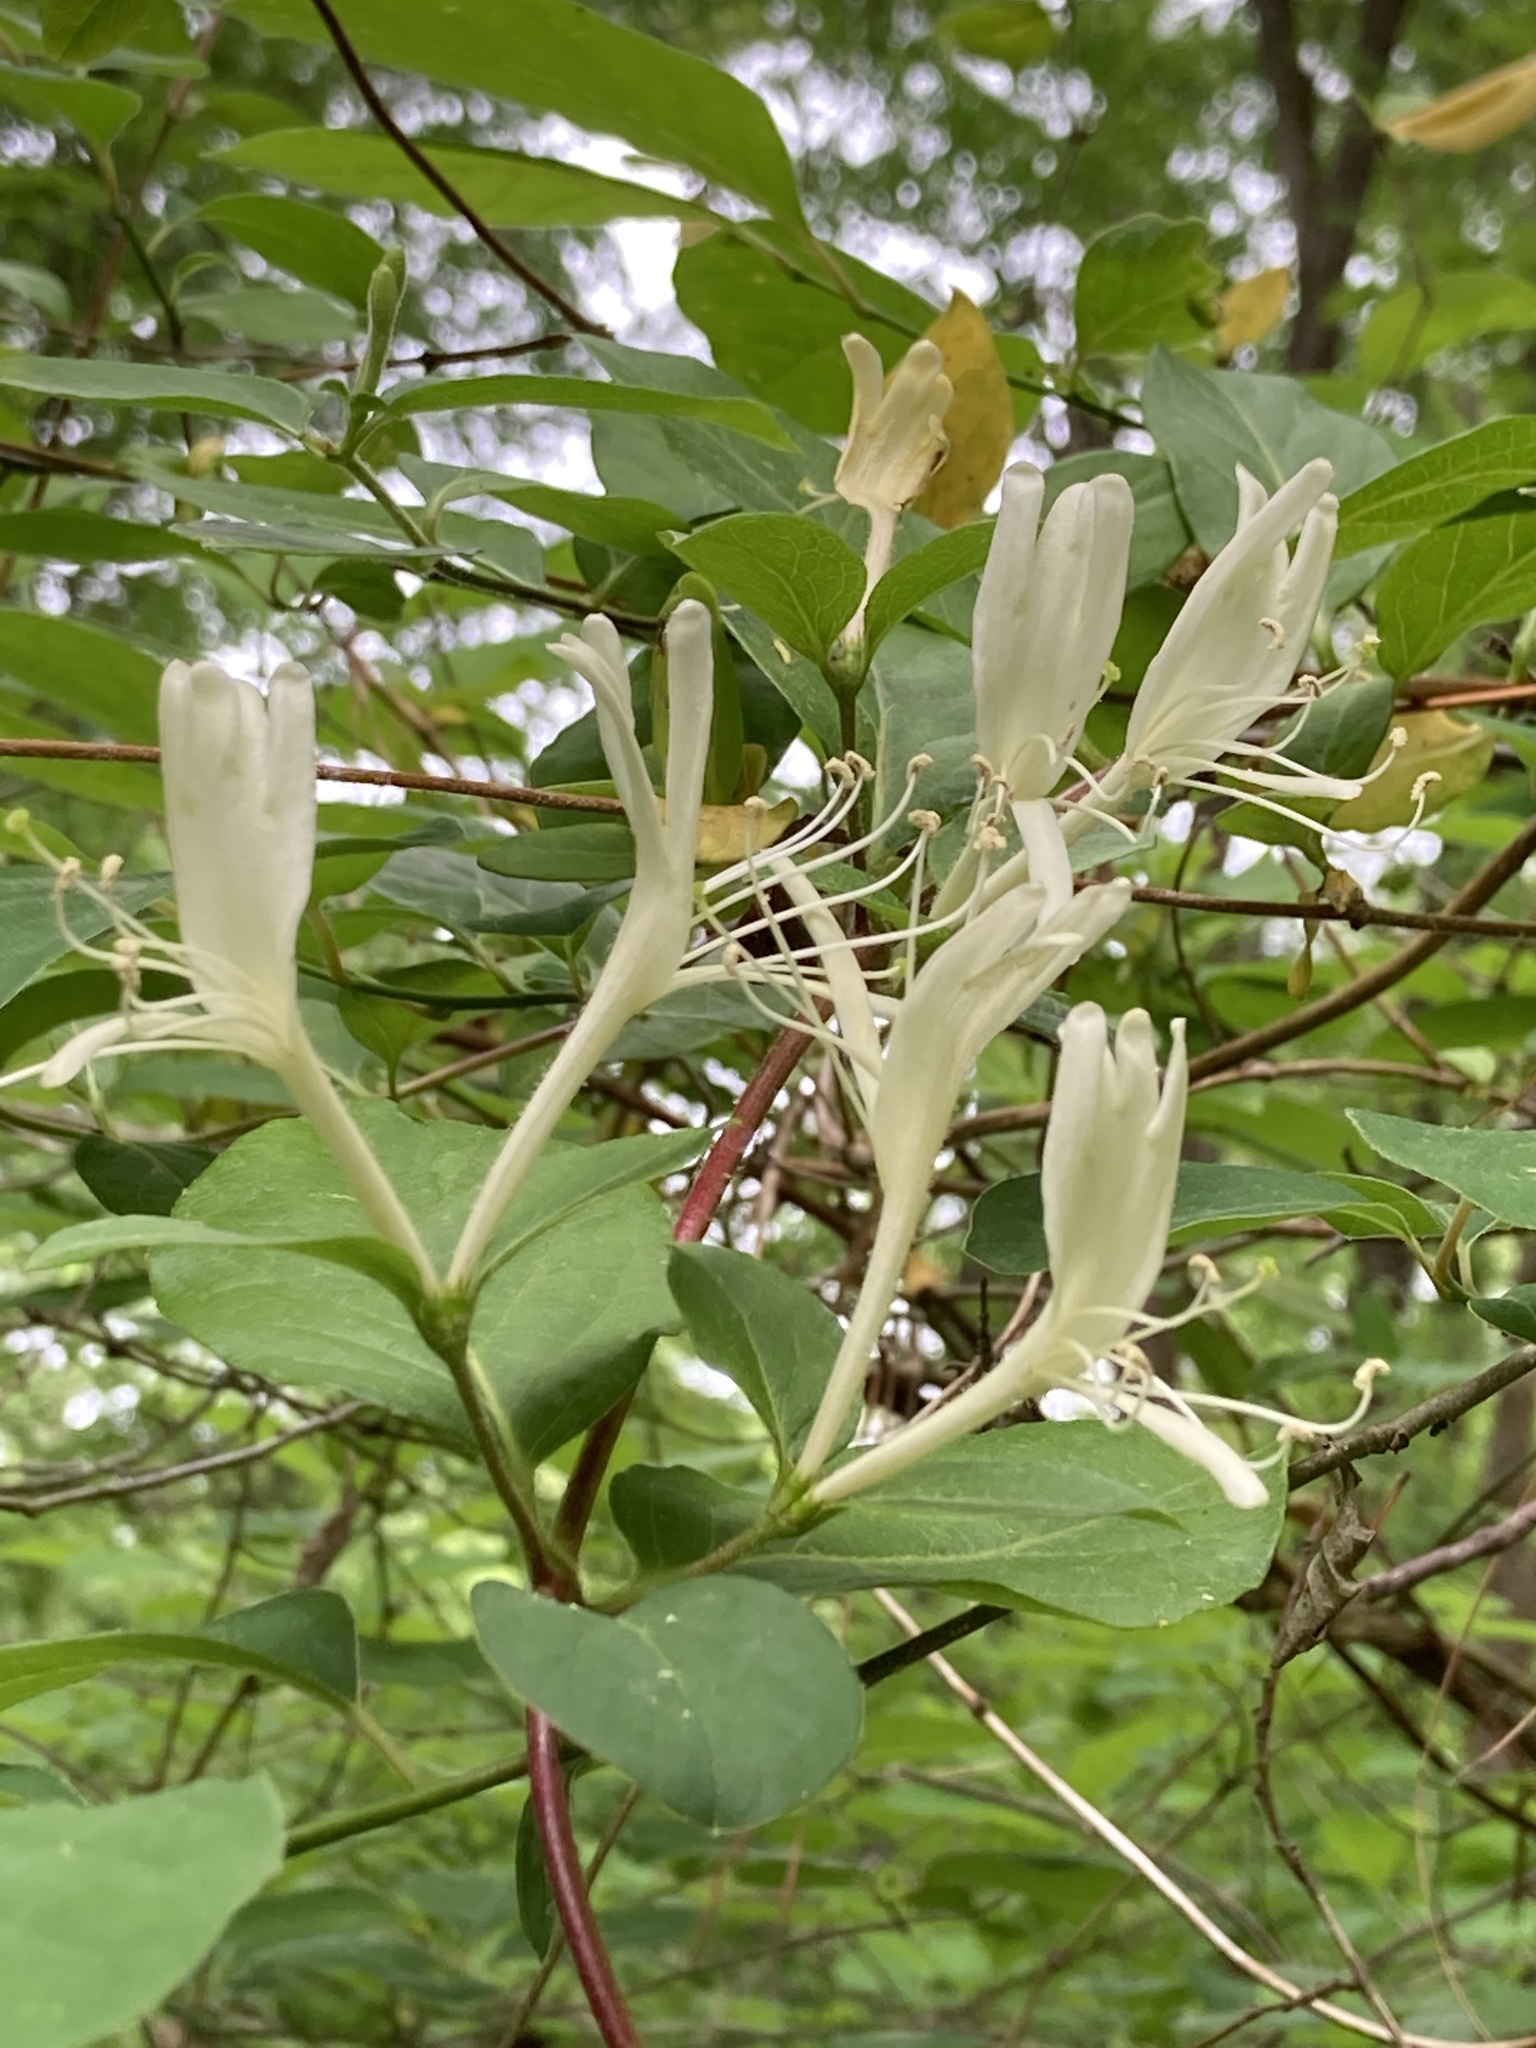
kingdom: Plantae
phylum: Tracheophyta
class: Magnoliopsida
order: Dipsacales
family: Caprifoliaceae
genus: Lonicera
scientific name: Lonicera japonica
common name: Japanese honeysuckle
